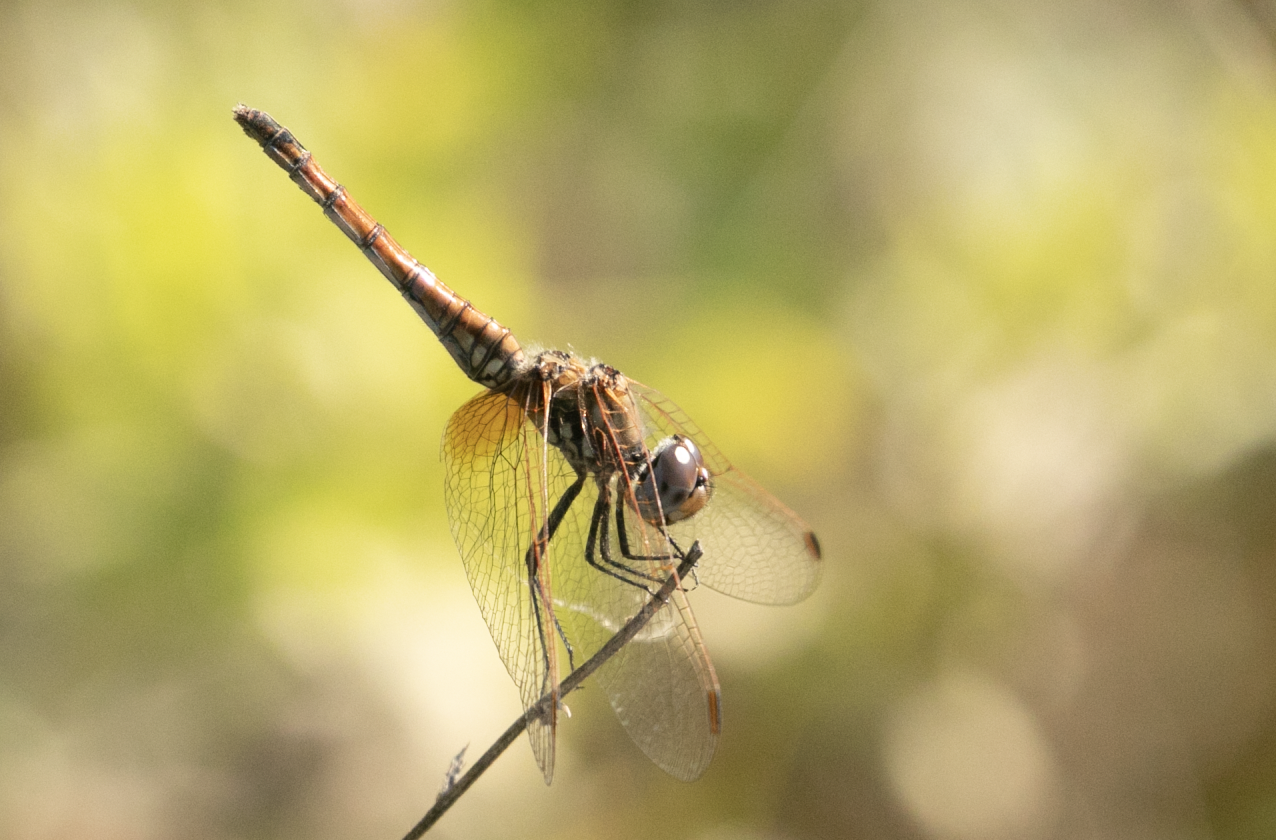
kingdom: Animalia
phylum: Arthropoda
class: Insecta
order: Odonata
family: Libellulidae
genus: Trithemis
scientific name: Trithemis annulata
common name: Violet dropwing
